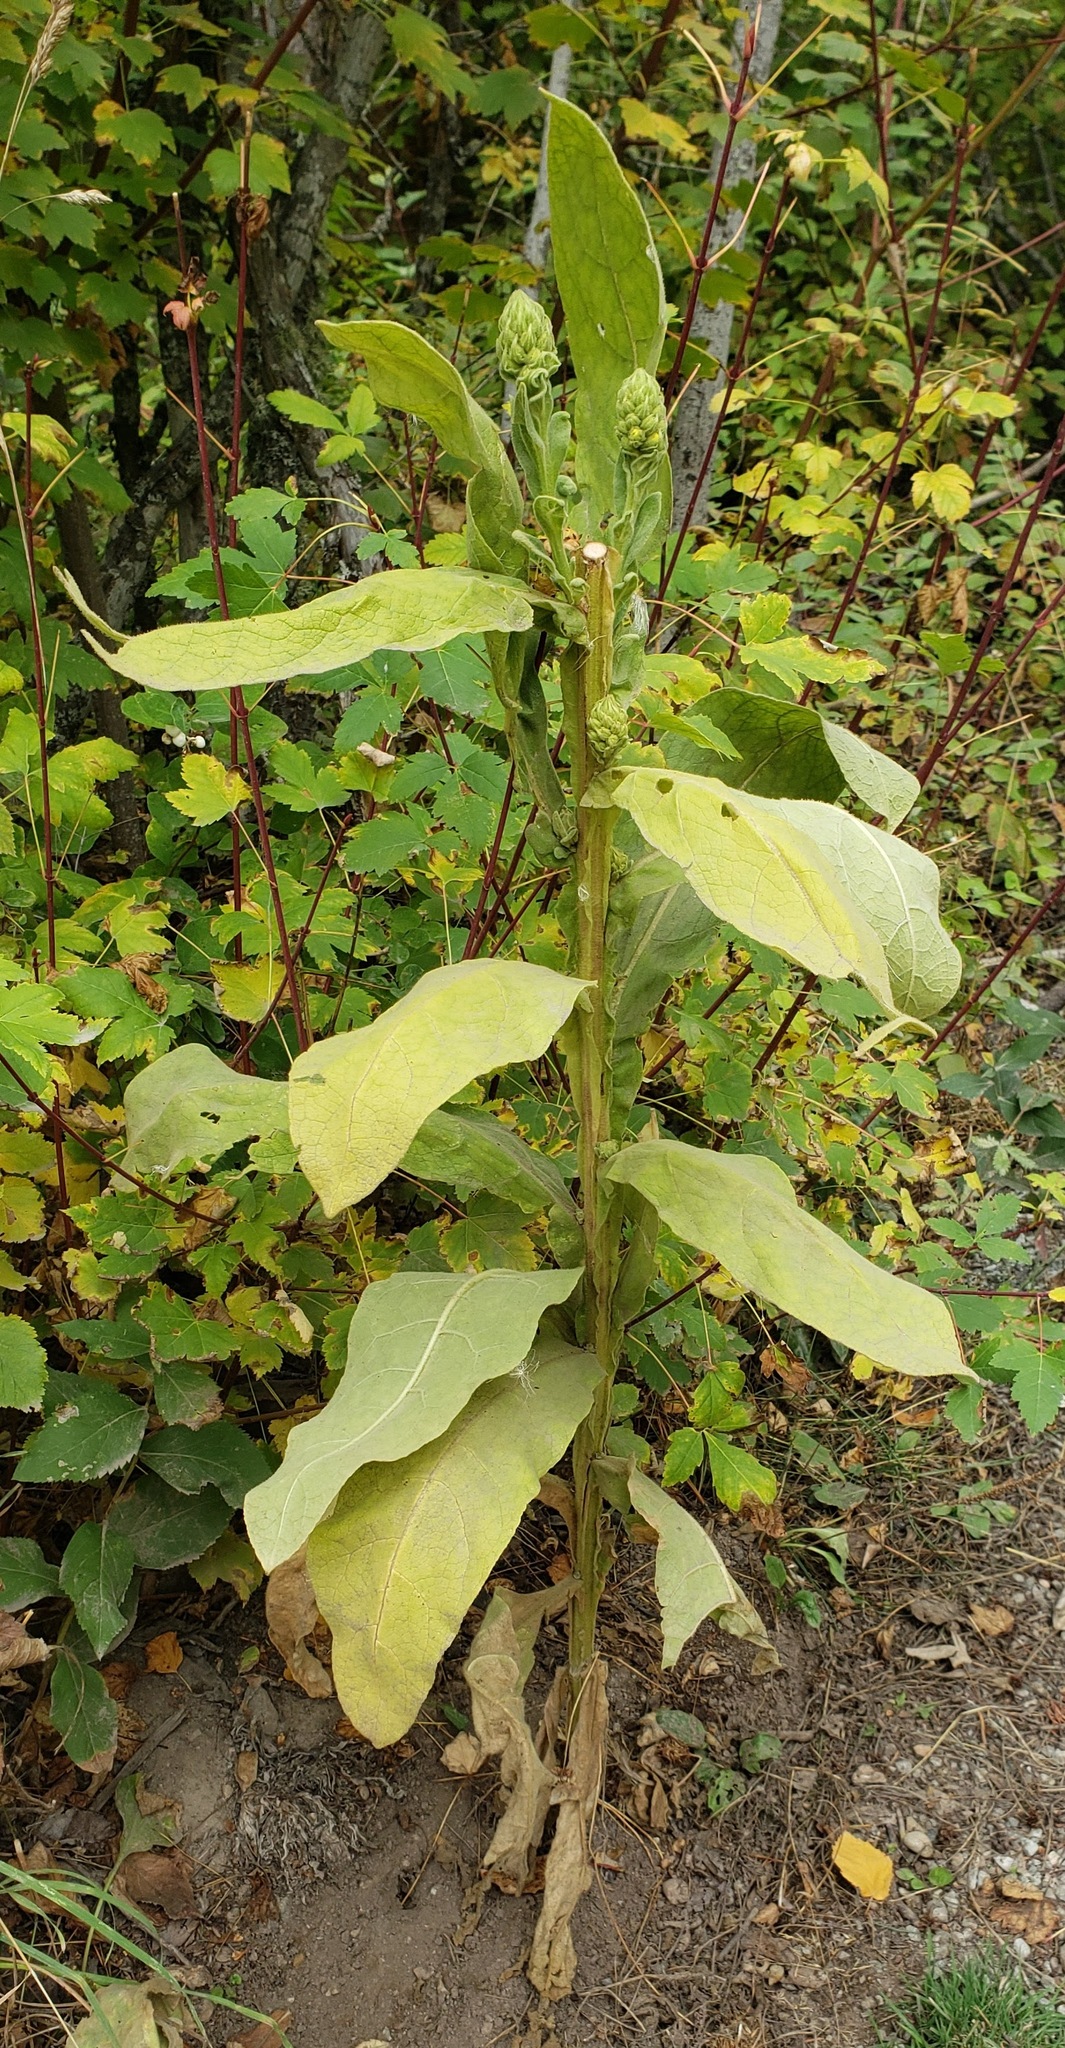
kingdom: Plantae
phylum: Tracheophyta
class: Magnoliopsida
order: Lamiales
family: Scrophulariaceae
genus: Verbascum
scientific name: Verbascum thapsus
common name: Common mullein
